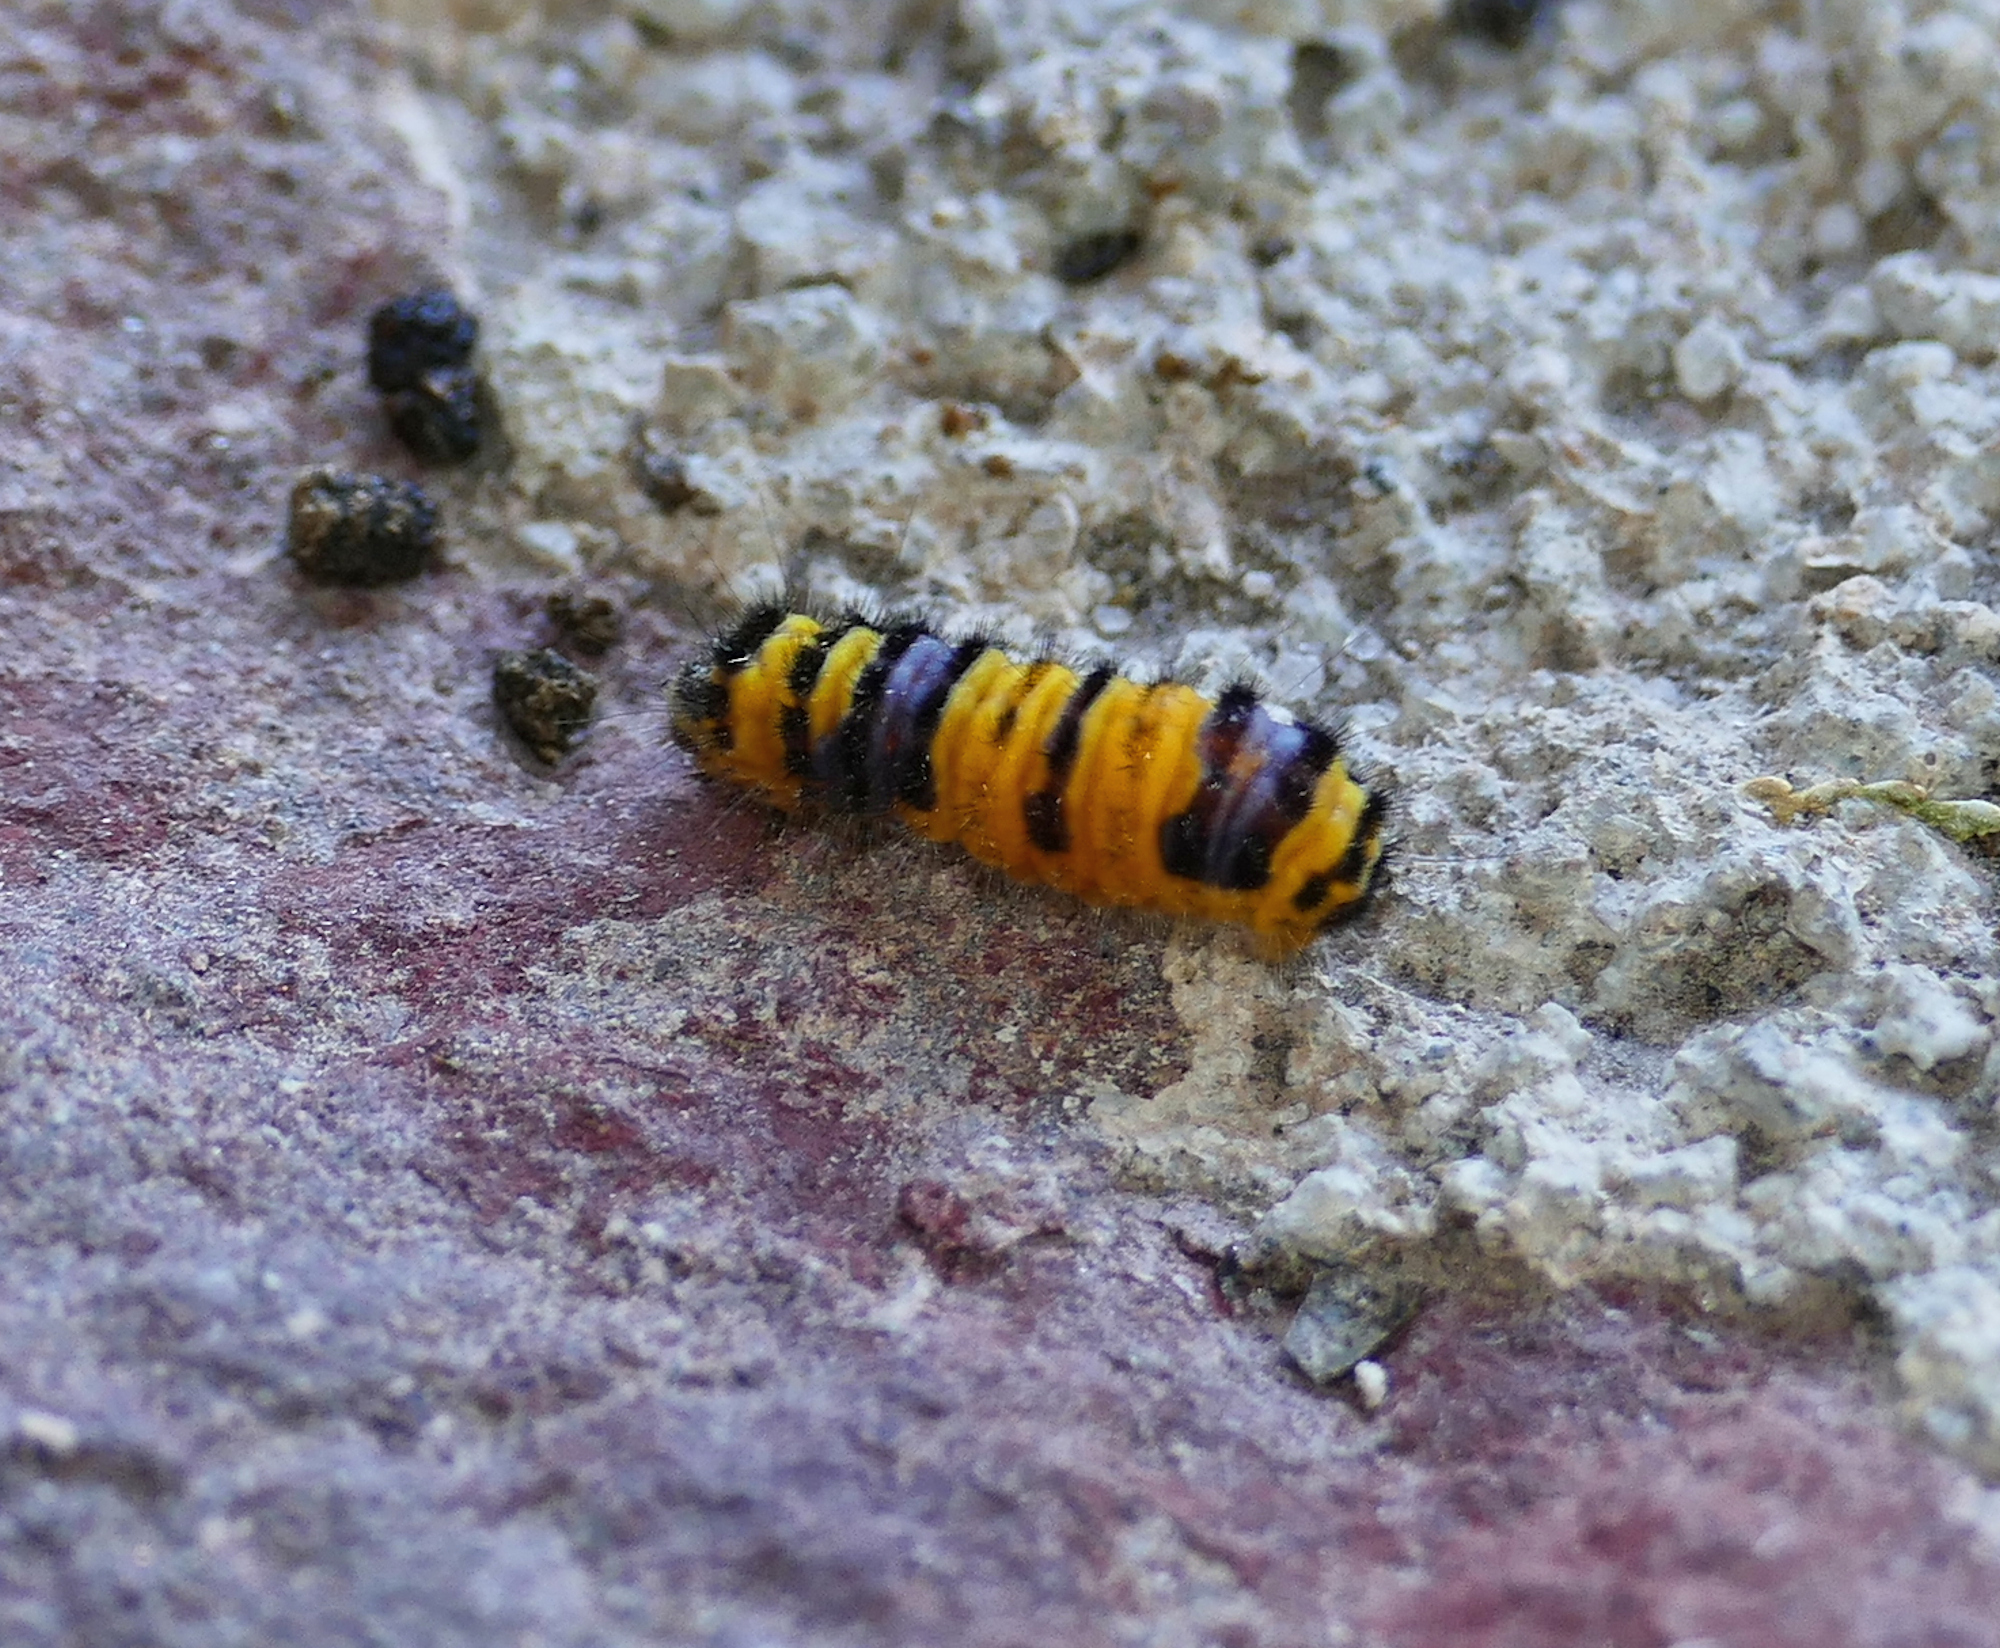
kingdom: Animalia
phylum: Arthropoda
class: Insecta
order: Lepidoptera
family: Zygaenidae
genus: Harrisina
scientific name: Harrisina metallica
